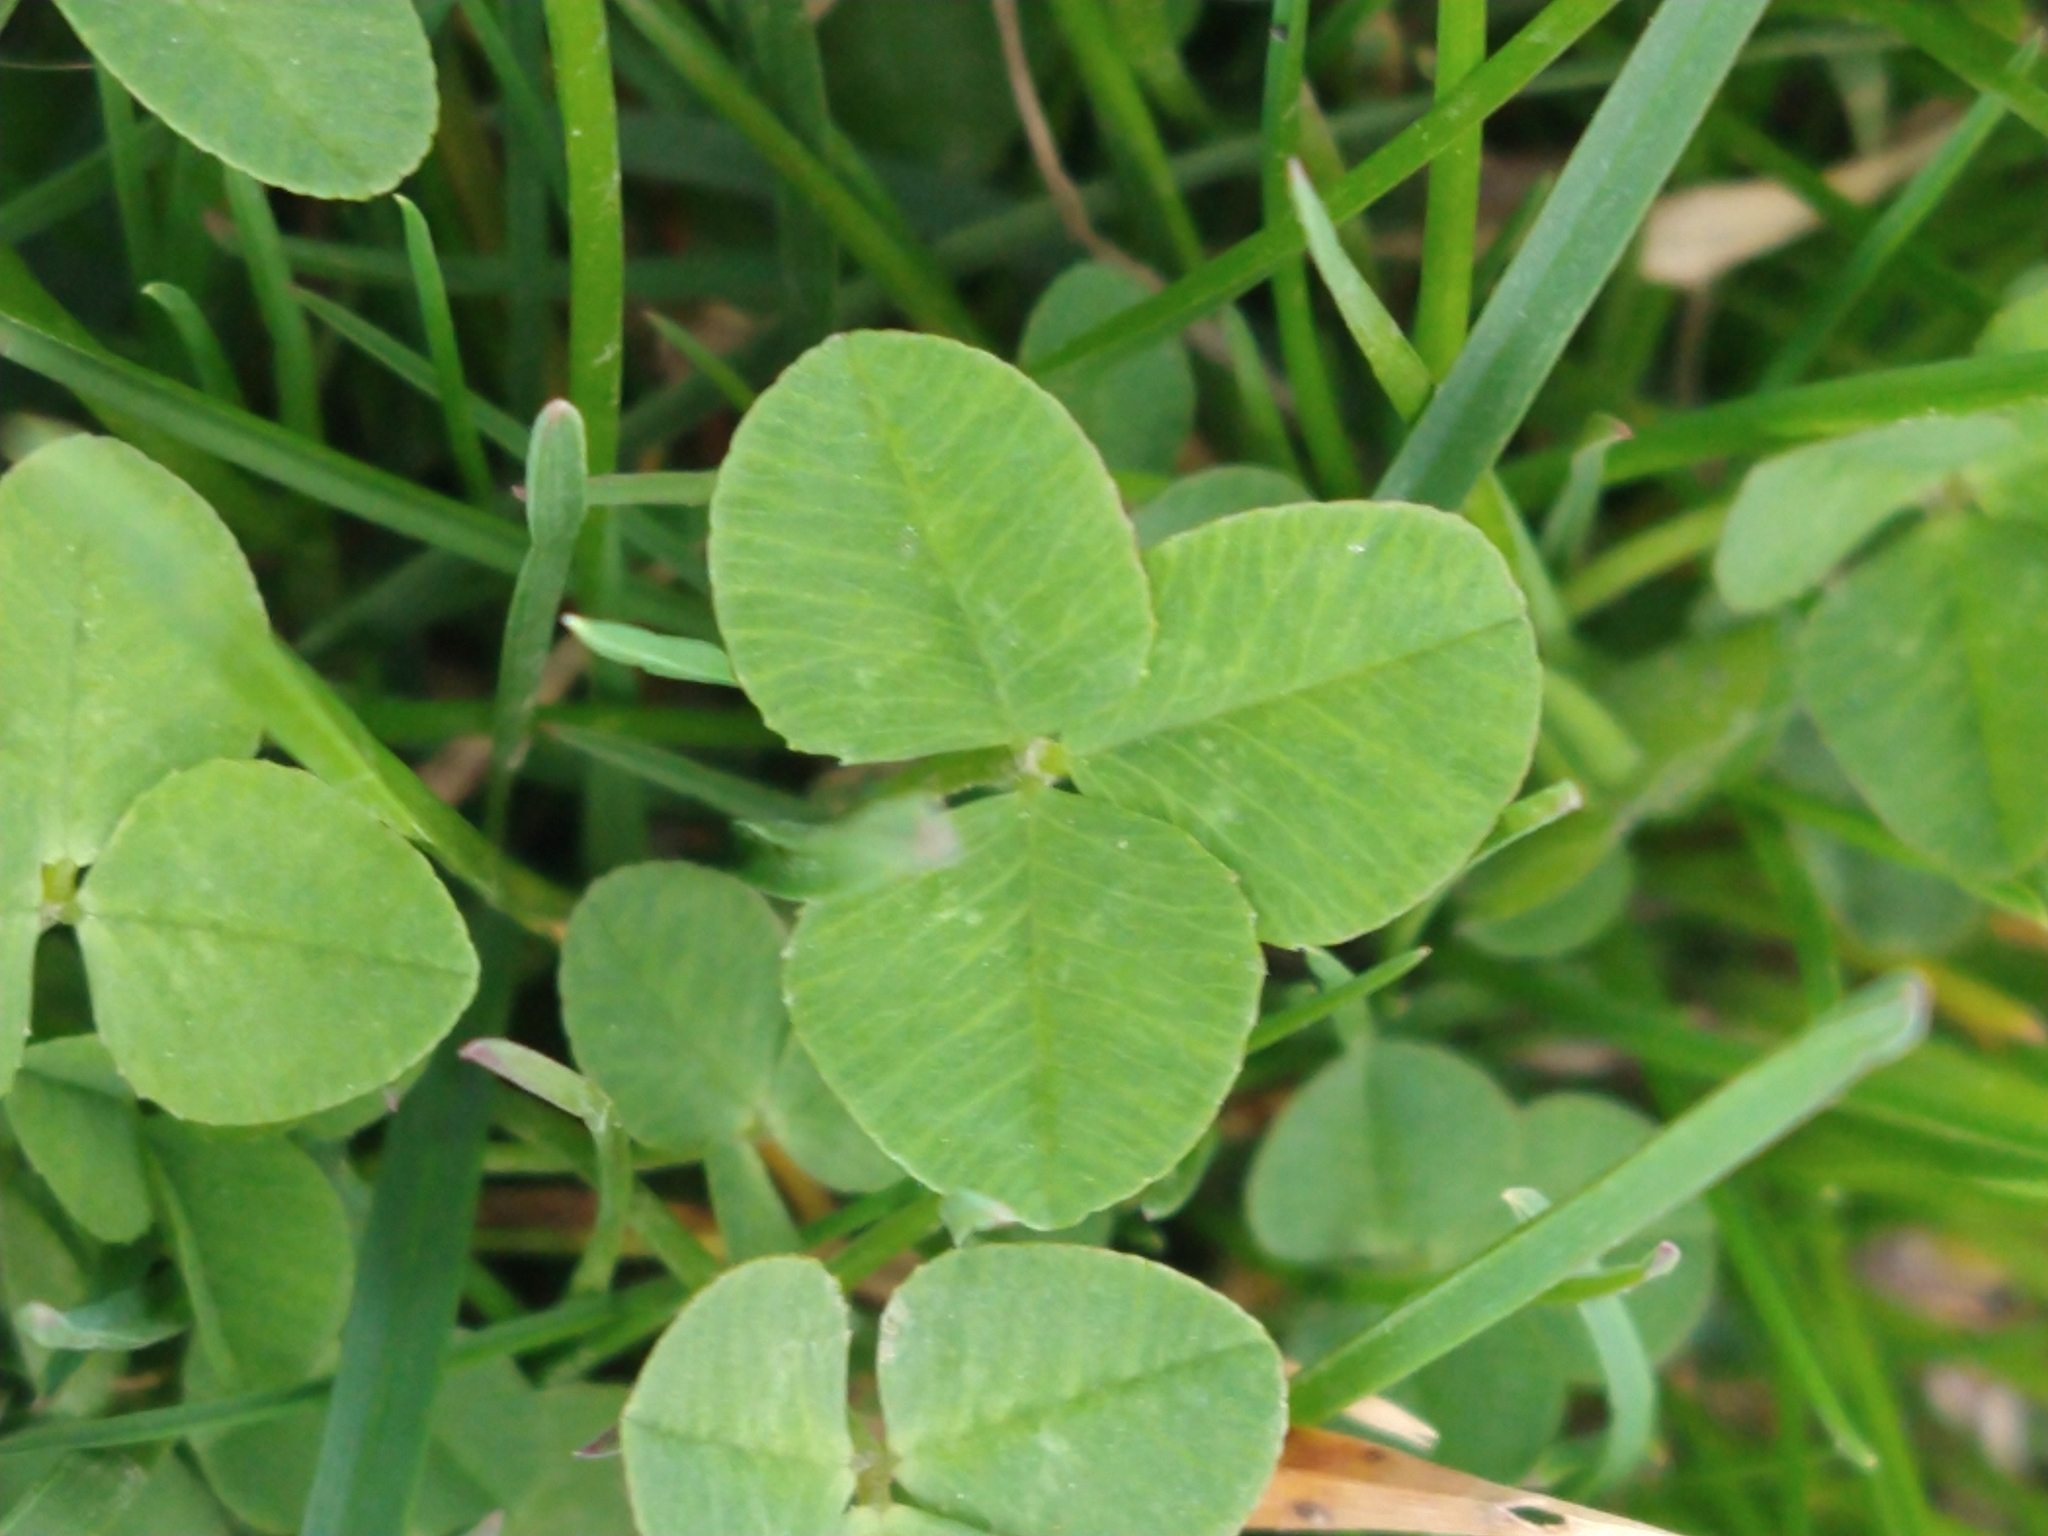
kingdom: Plantae
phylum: Tracheophyta
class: Magnoliopsida
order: Fabales
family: Fabaceae
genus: Trifolium
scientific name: Trifolium repens
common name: White clover
